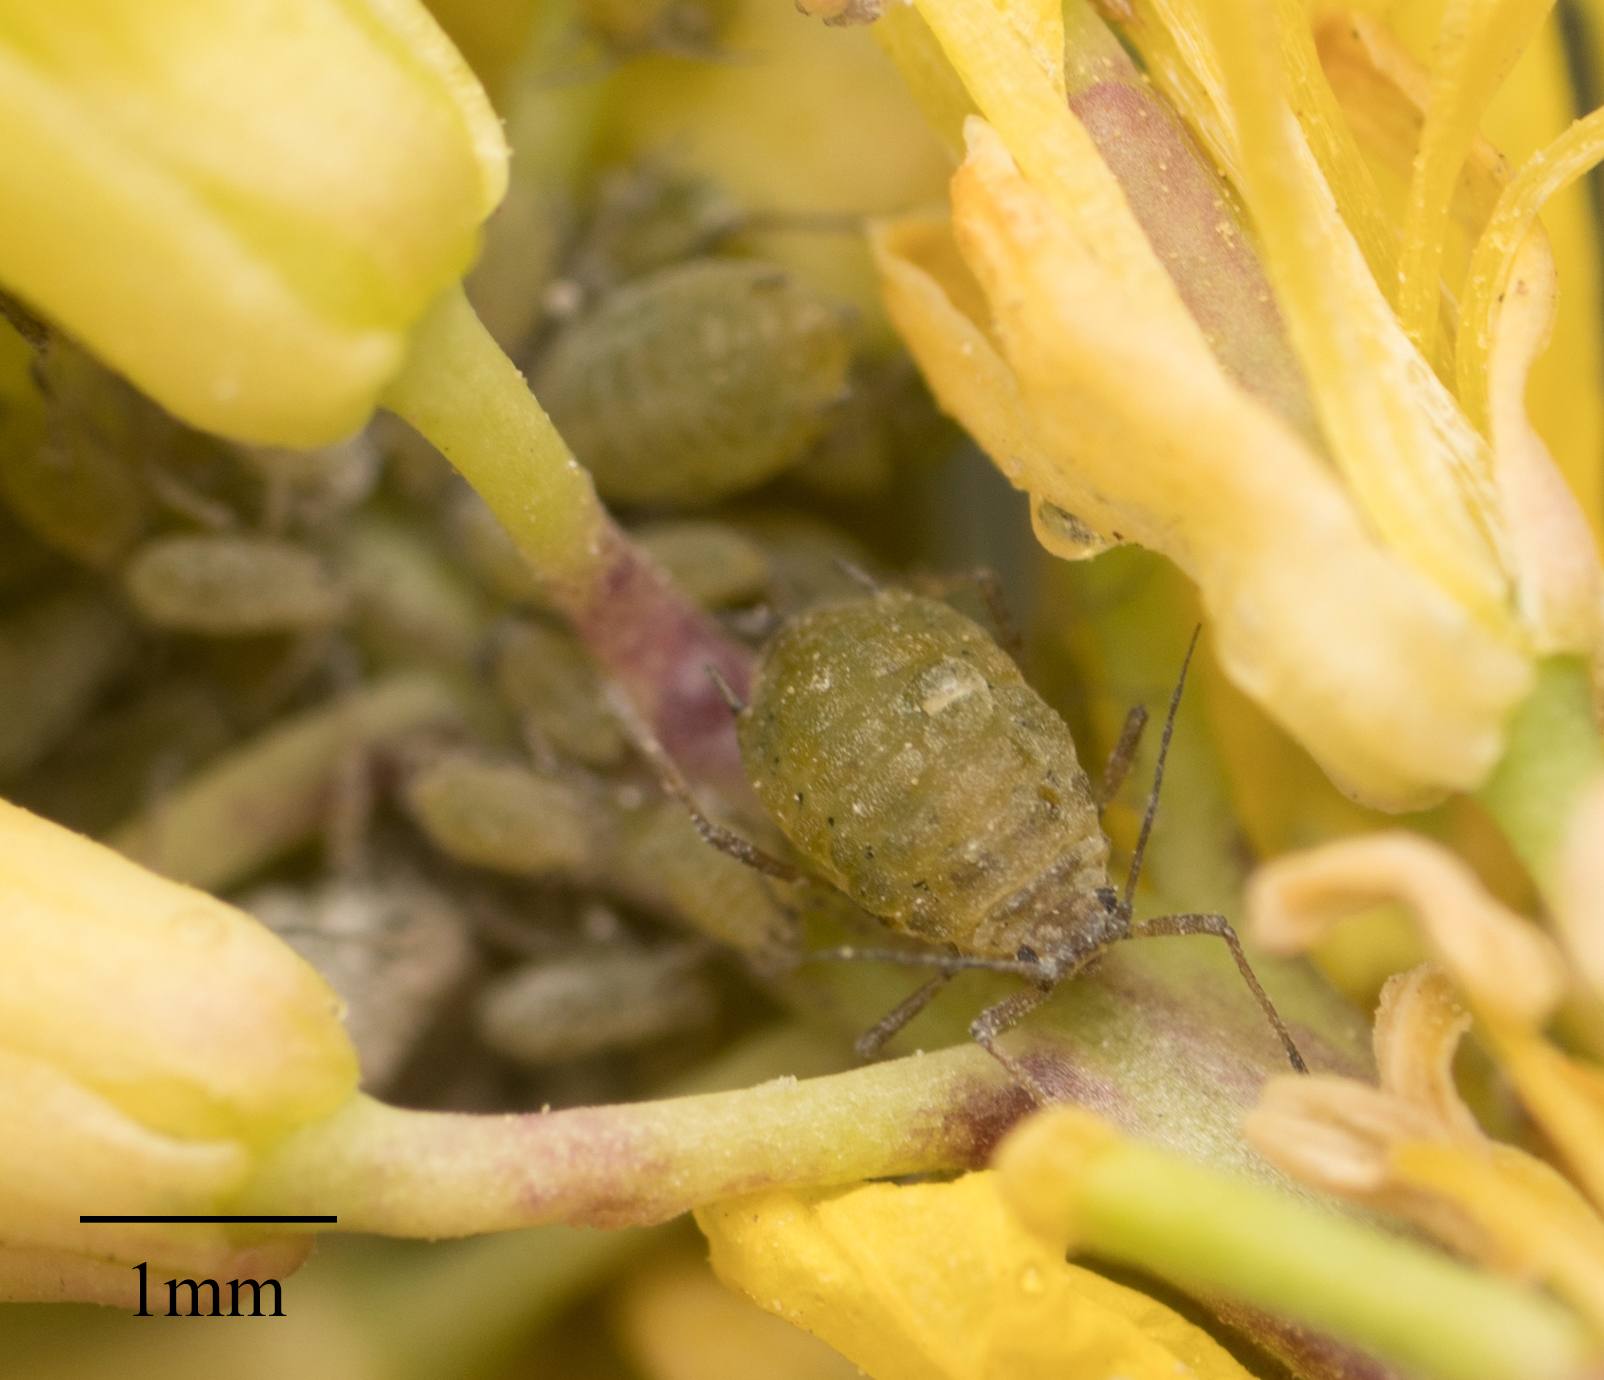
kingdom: Animalia
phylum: Arthropoda
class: Insecta
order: Hemiptera
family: Aphididae
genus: Lipaphis
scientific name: Lipaphis pseudobrassicae
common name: Turnip aphid
